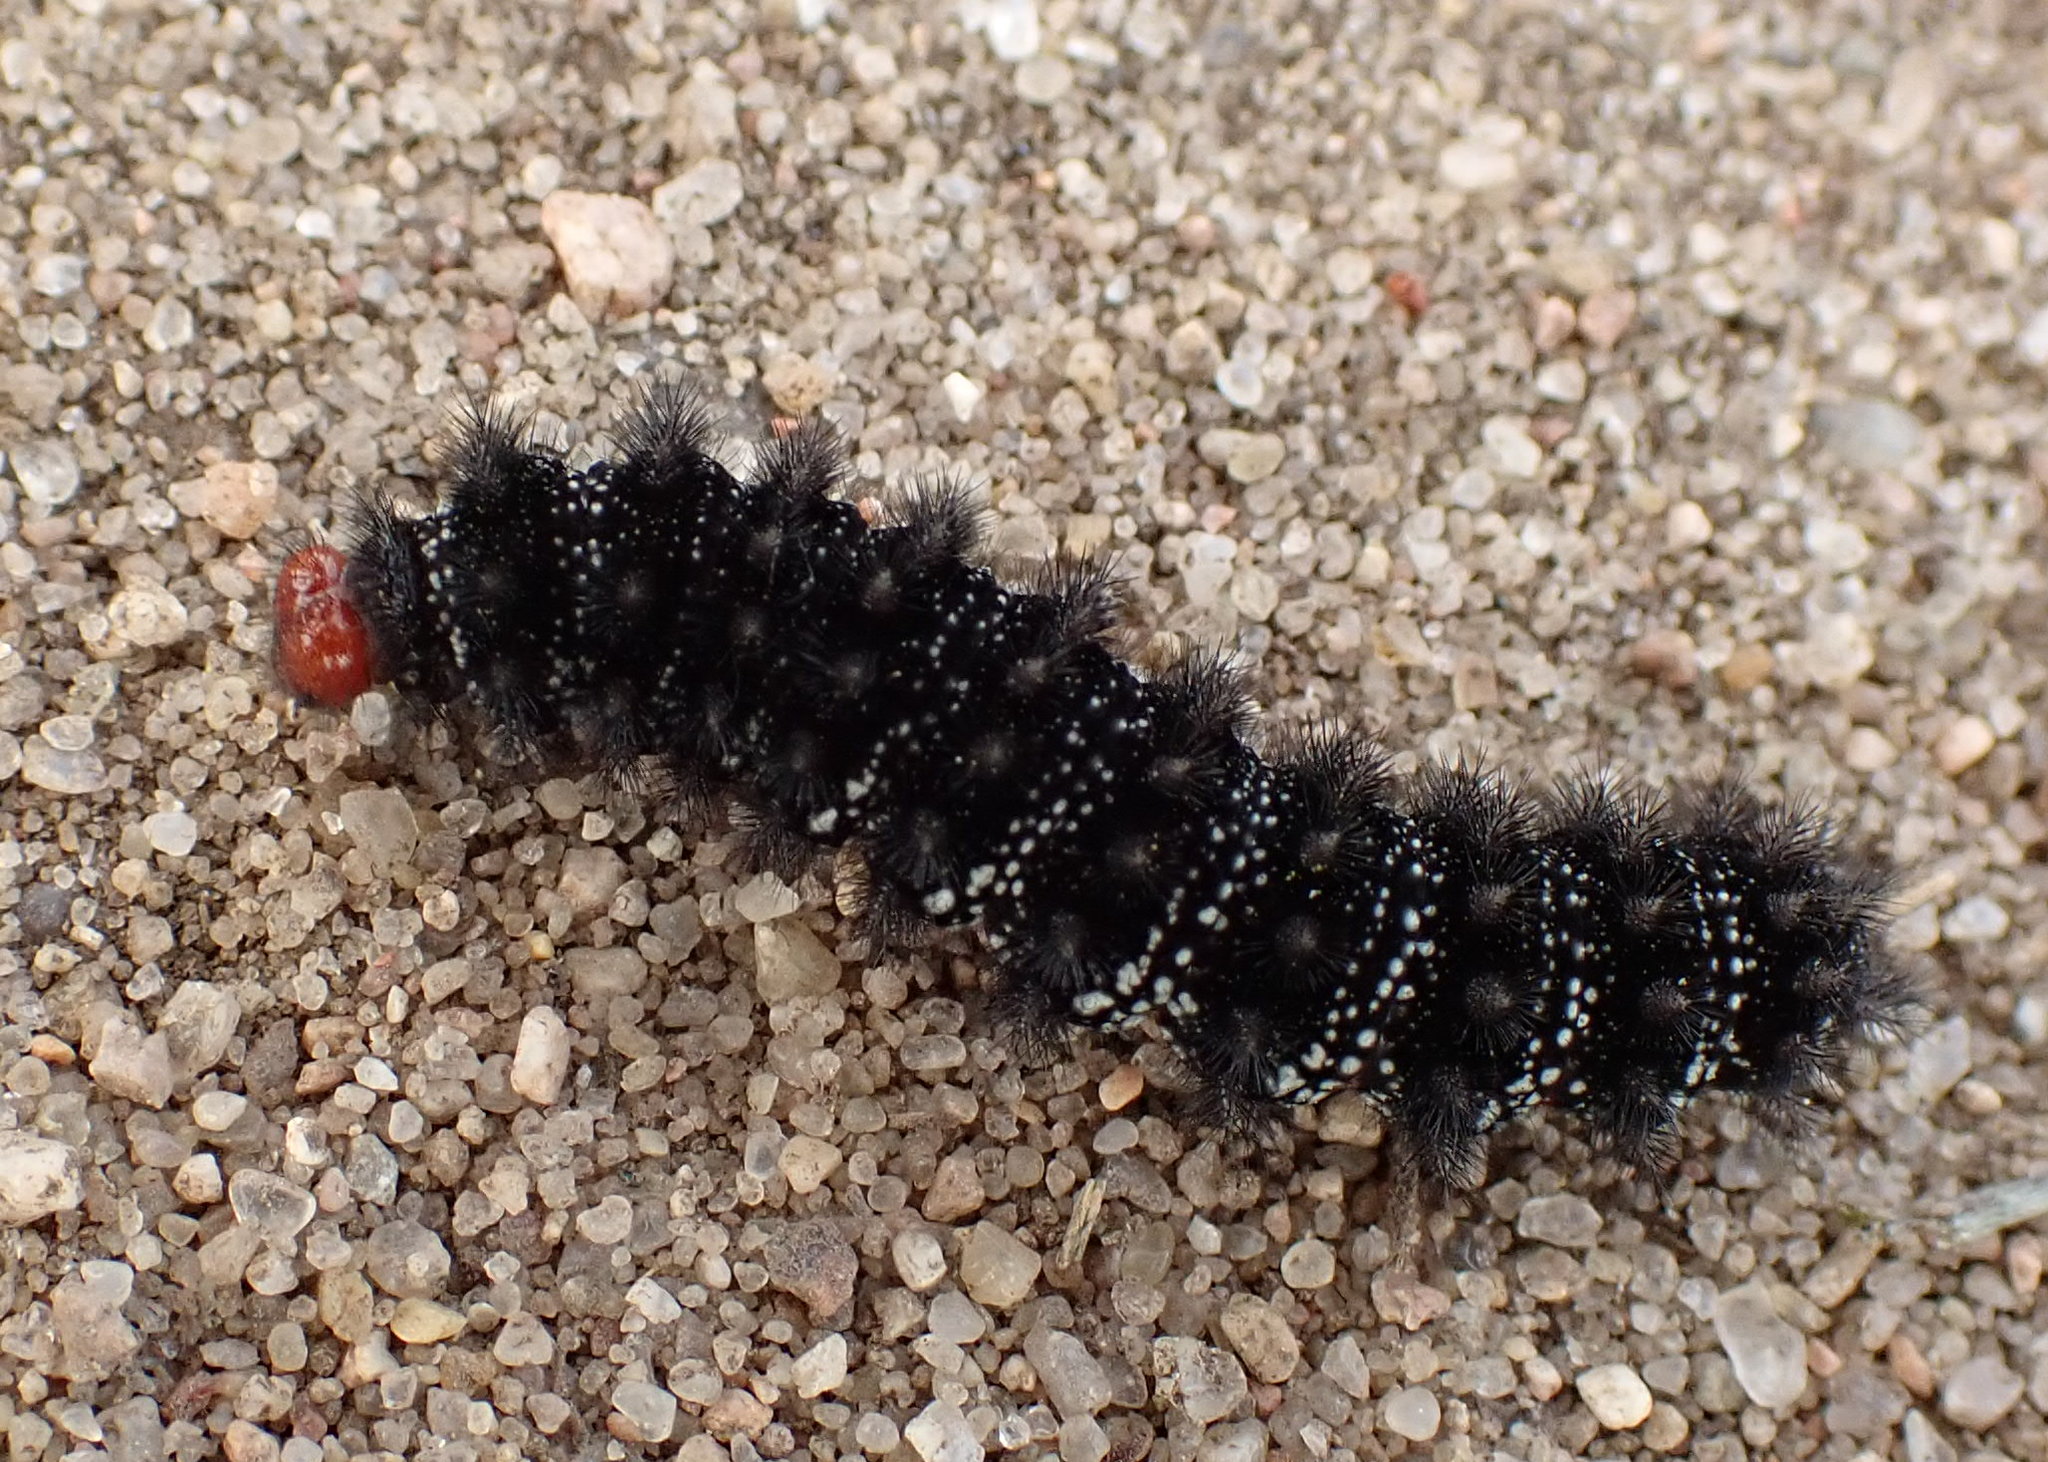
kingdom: Animalia
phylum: Arthropoda
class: Insecta
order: Lepidoptera
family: Nymphalidae
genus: Melitaea
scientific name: Melitaea cinxia
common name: Glanville fritillary
